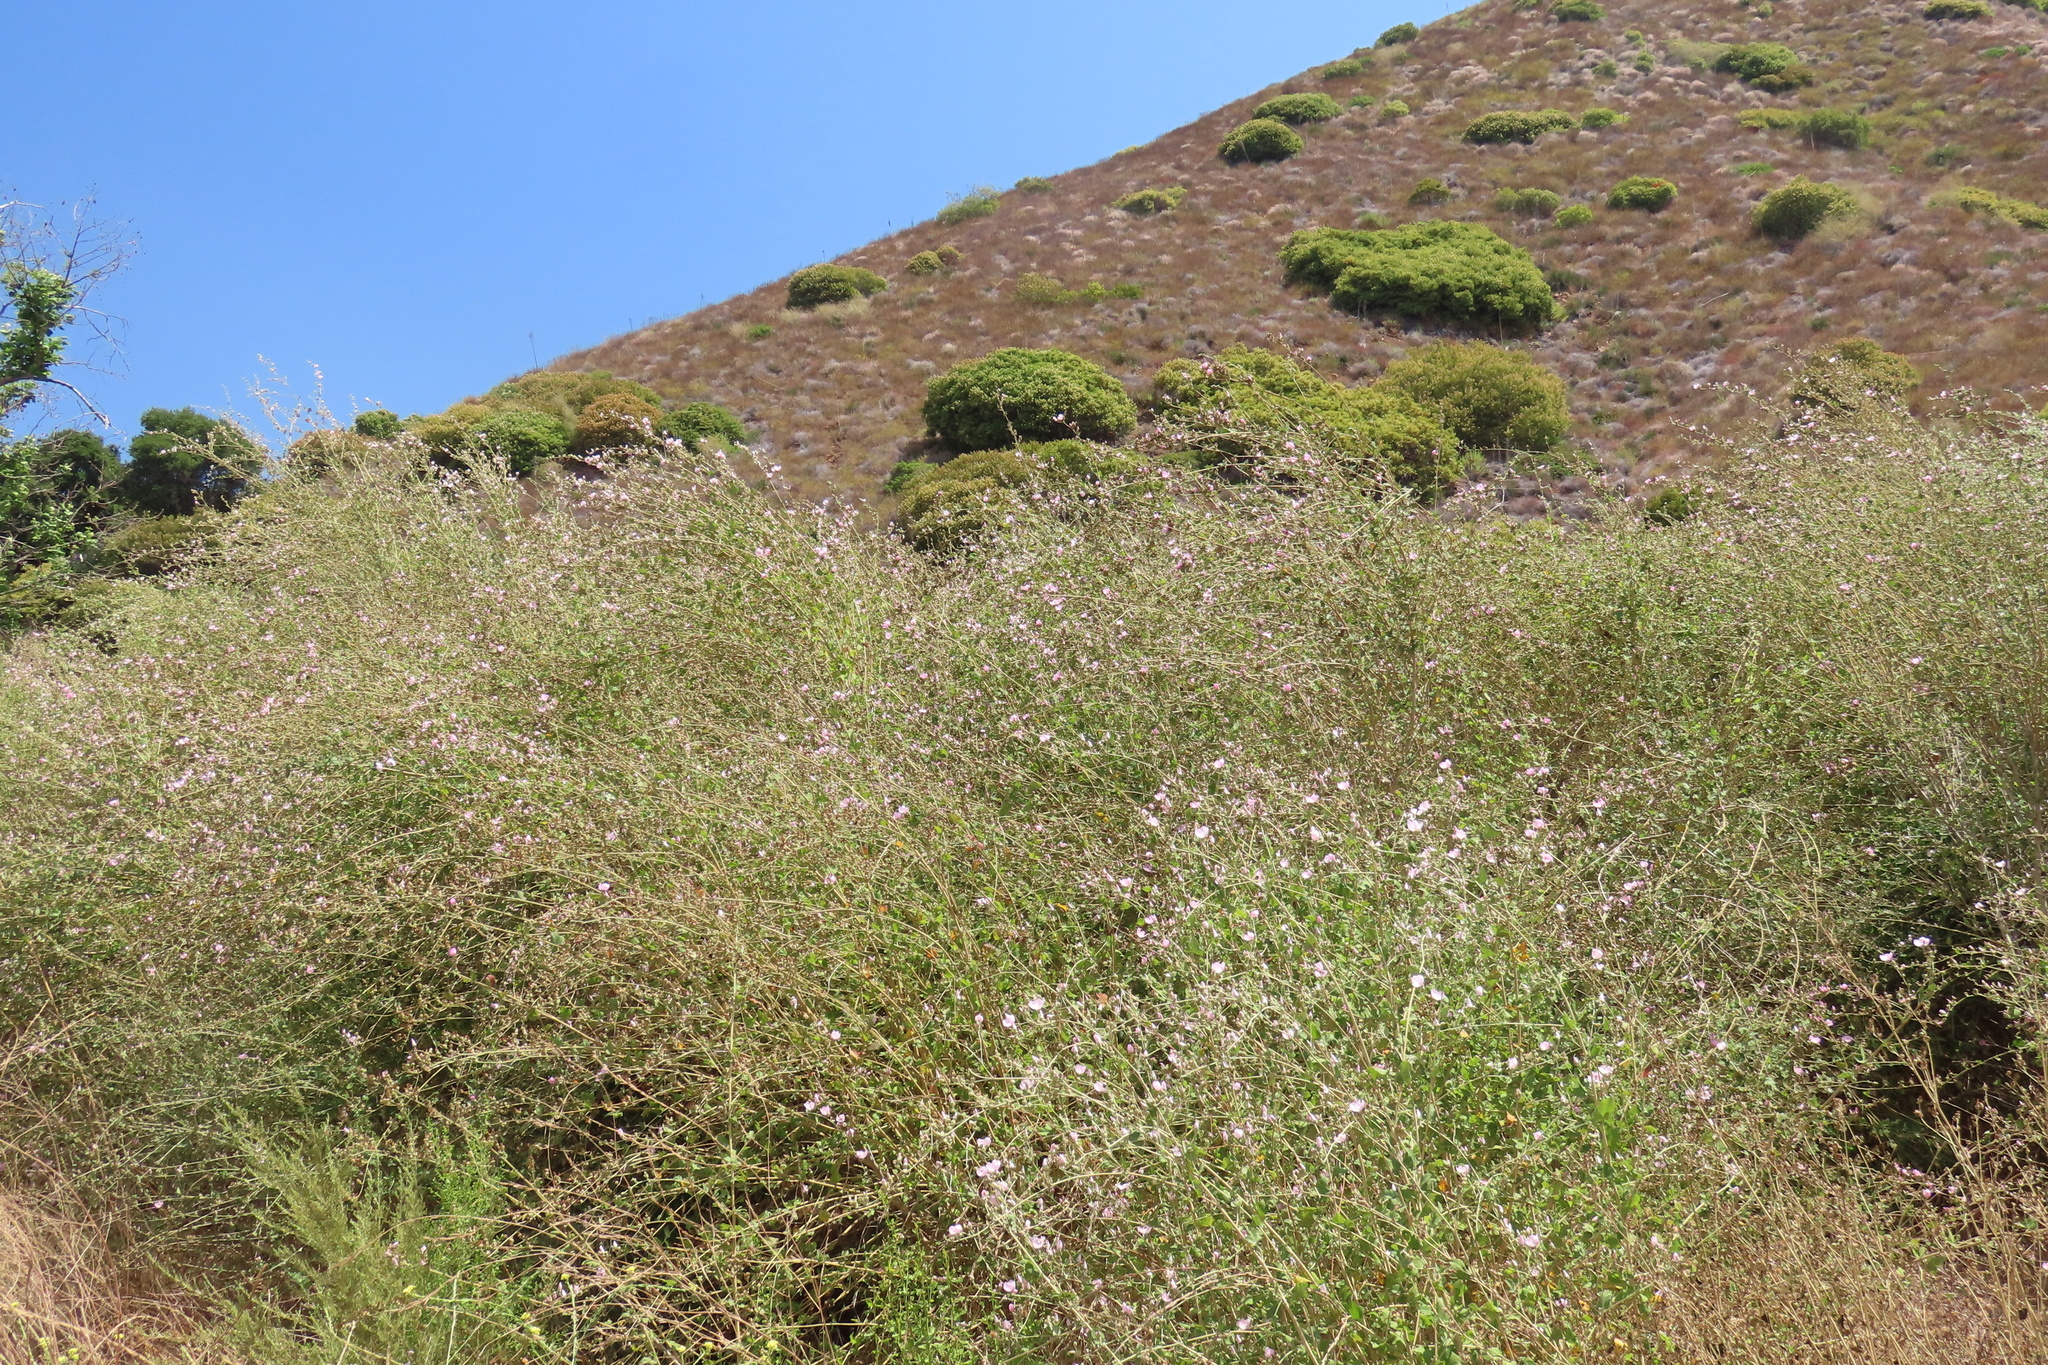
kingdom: Plantae
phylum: Tracheophyta
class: Magnoliopsida
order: Malvales
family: Malvaceae
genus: Malacothamnus
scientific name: Malacothamnus fasciculatus
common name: Sant cruz island bush-mallow
